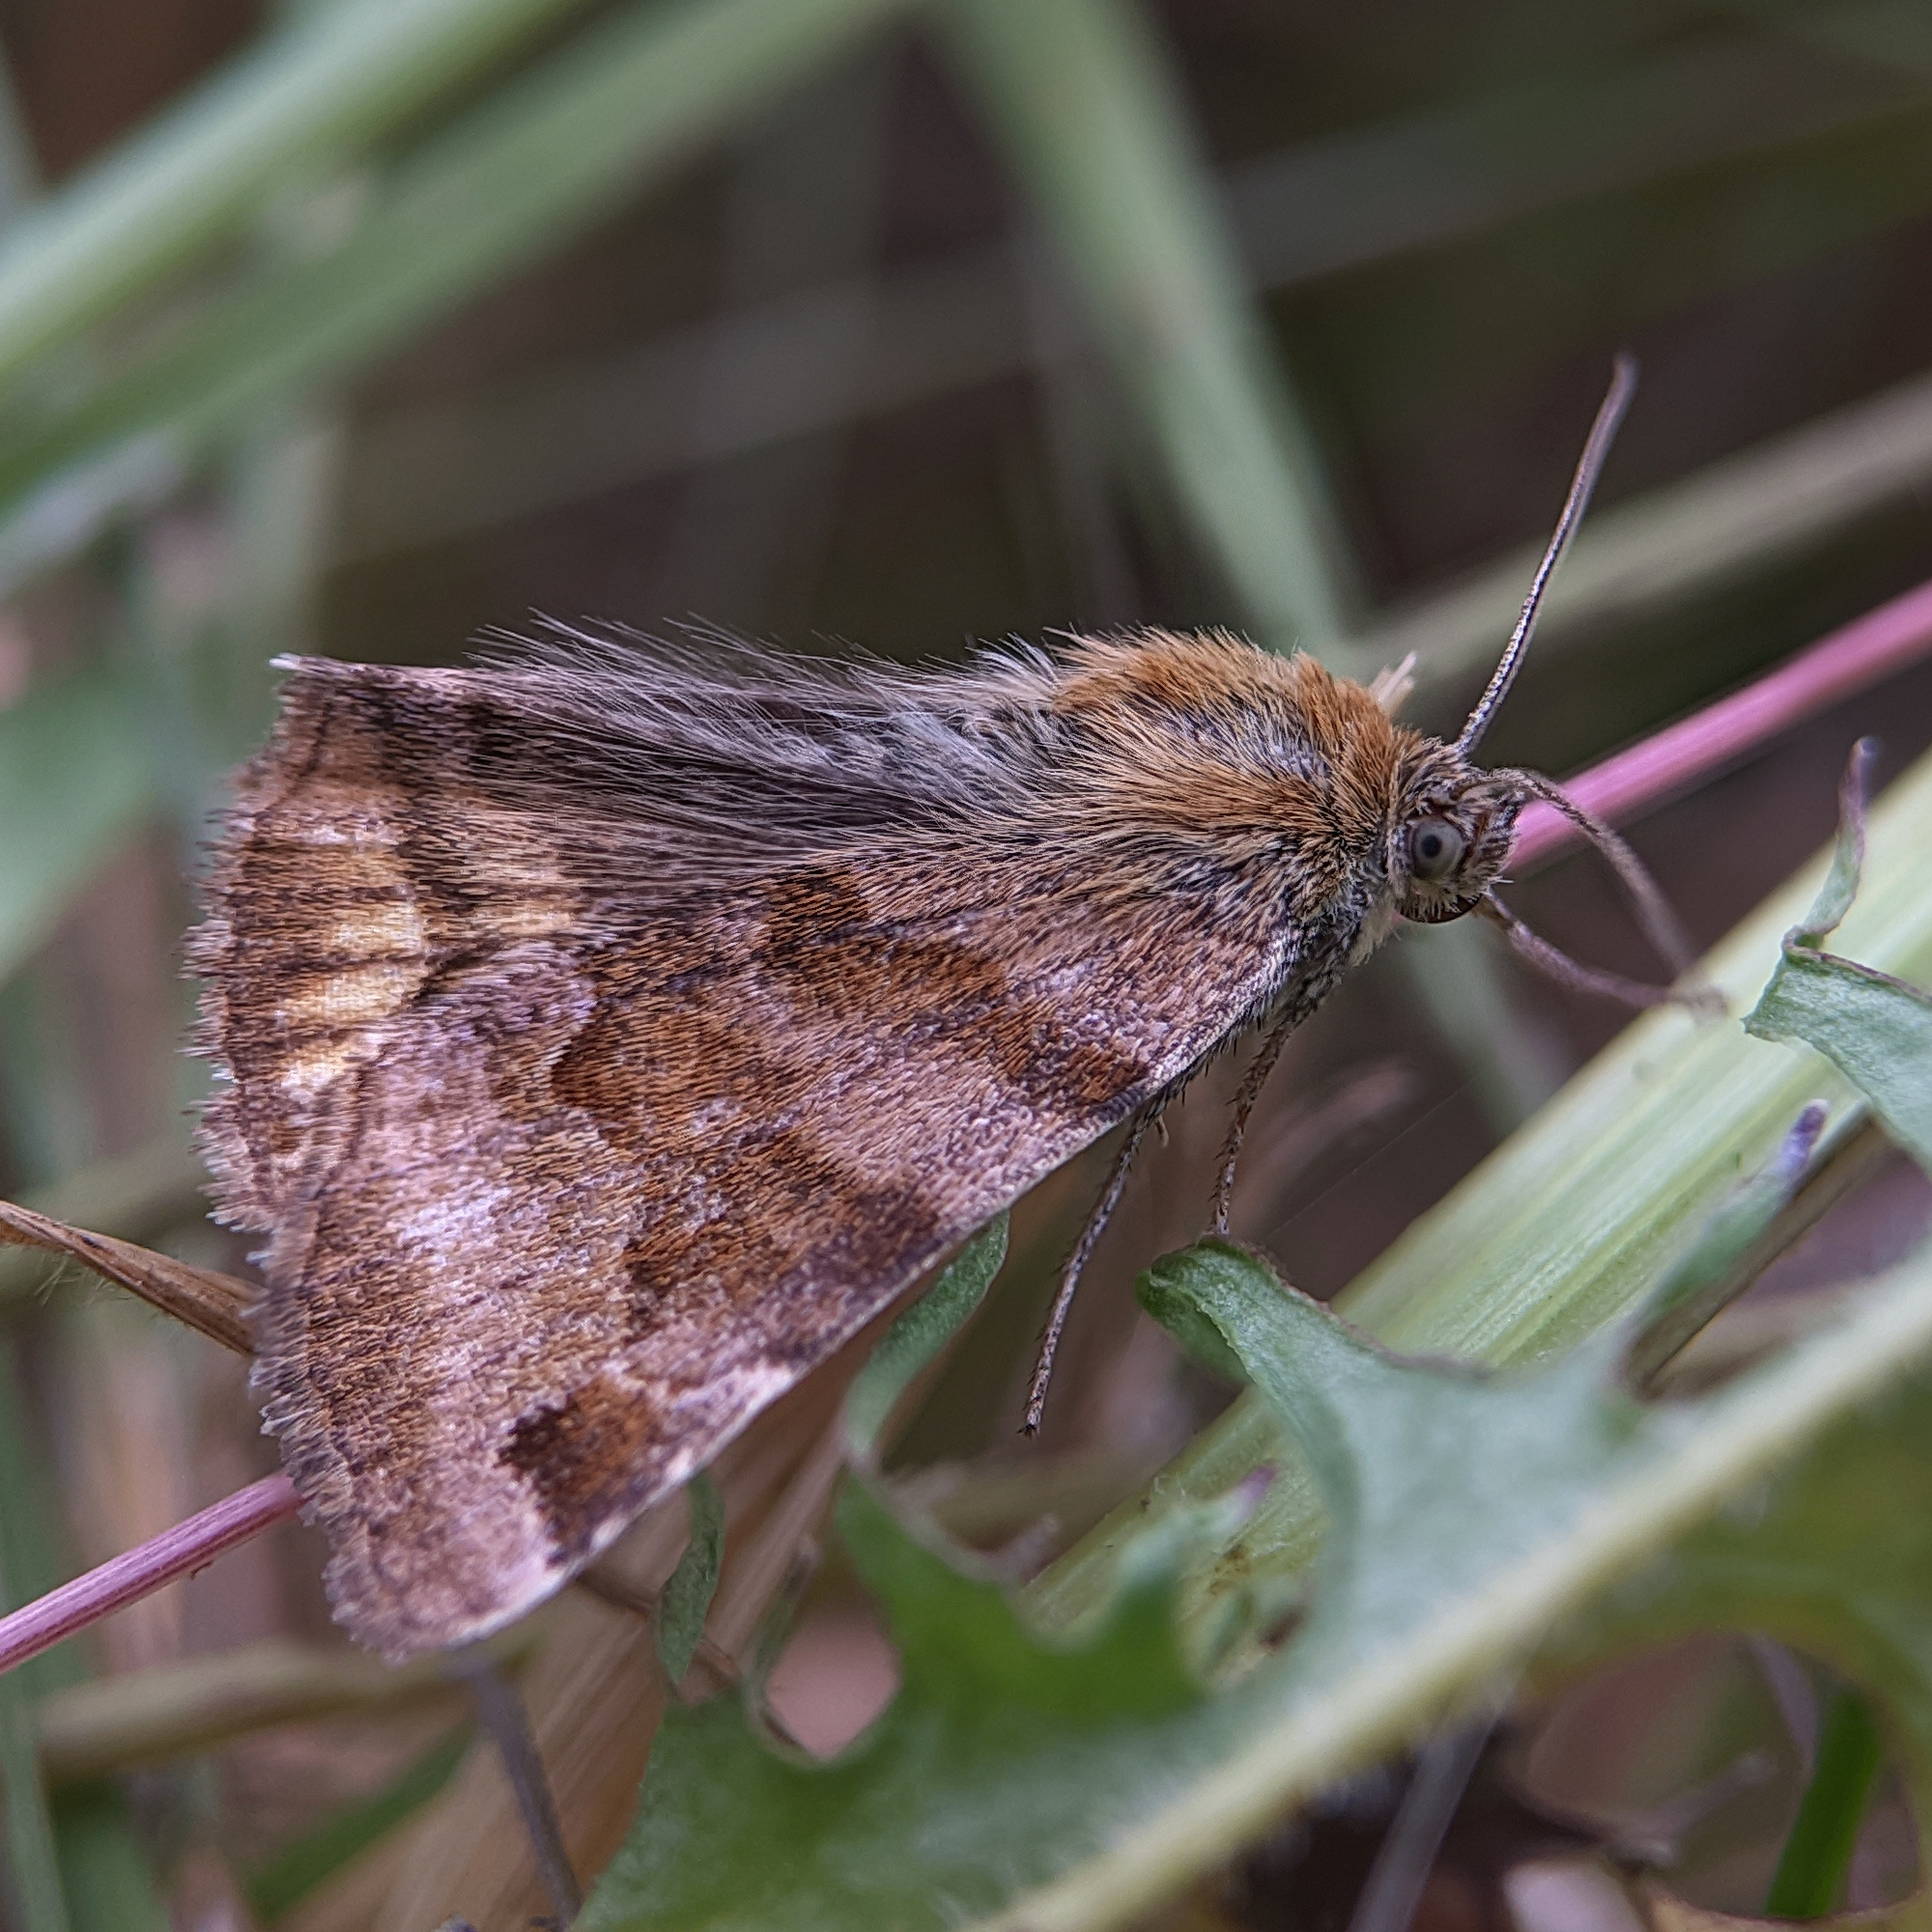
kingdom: Animalia
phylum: Arthropoda
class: Insecta
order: Lepidoptera
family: Erebidae
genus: Euclidia
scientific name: Euclidia glyphica
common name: Burnet companion
